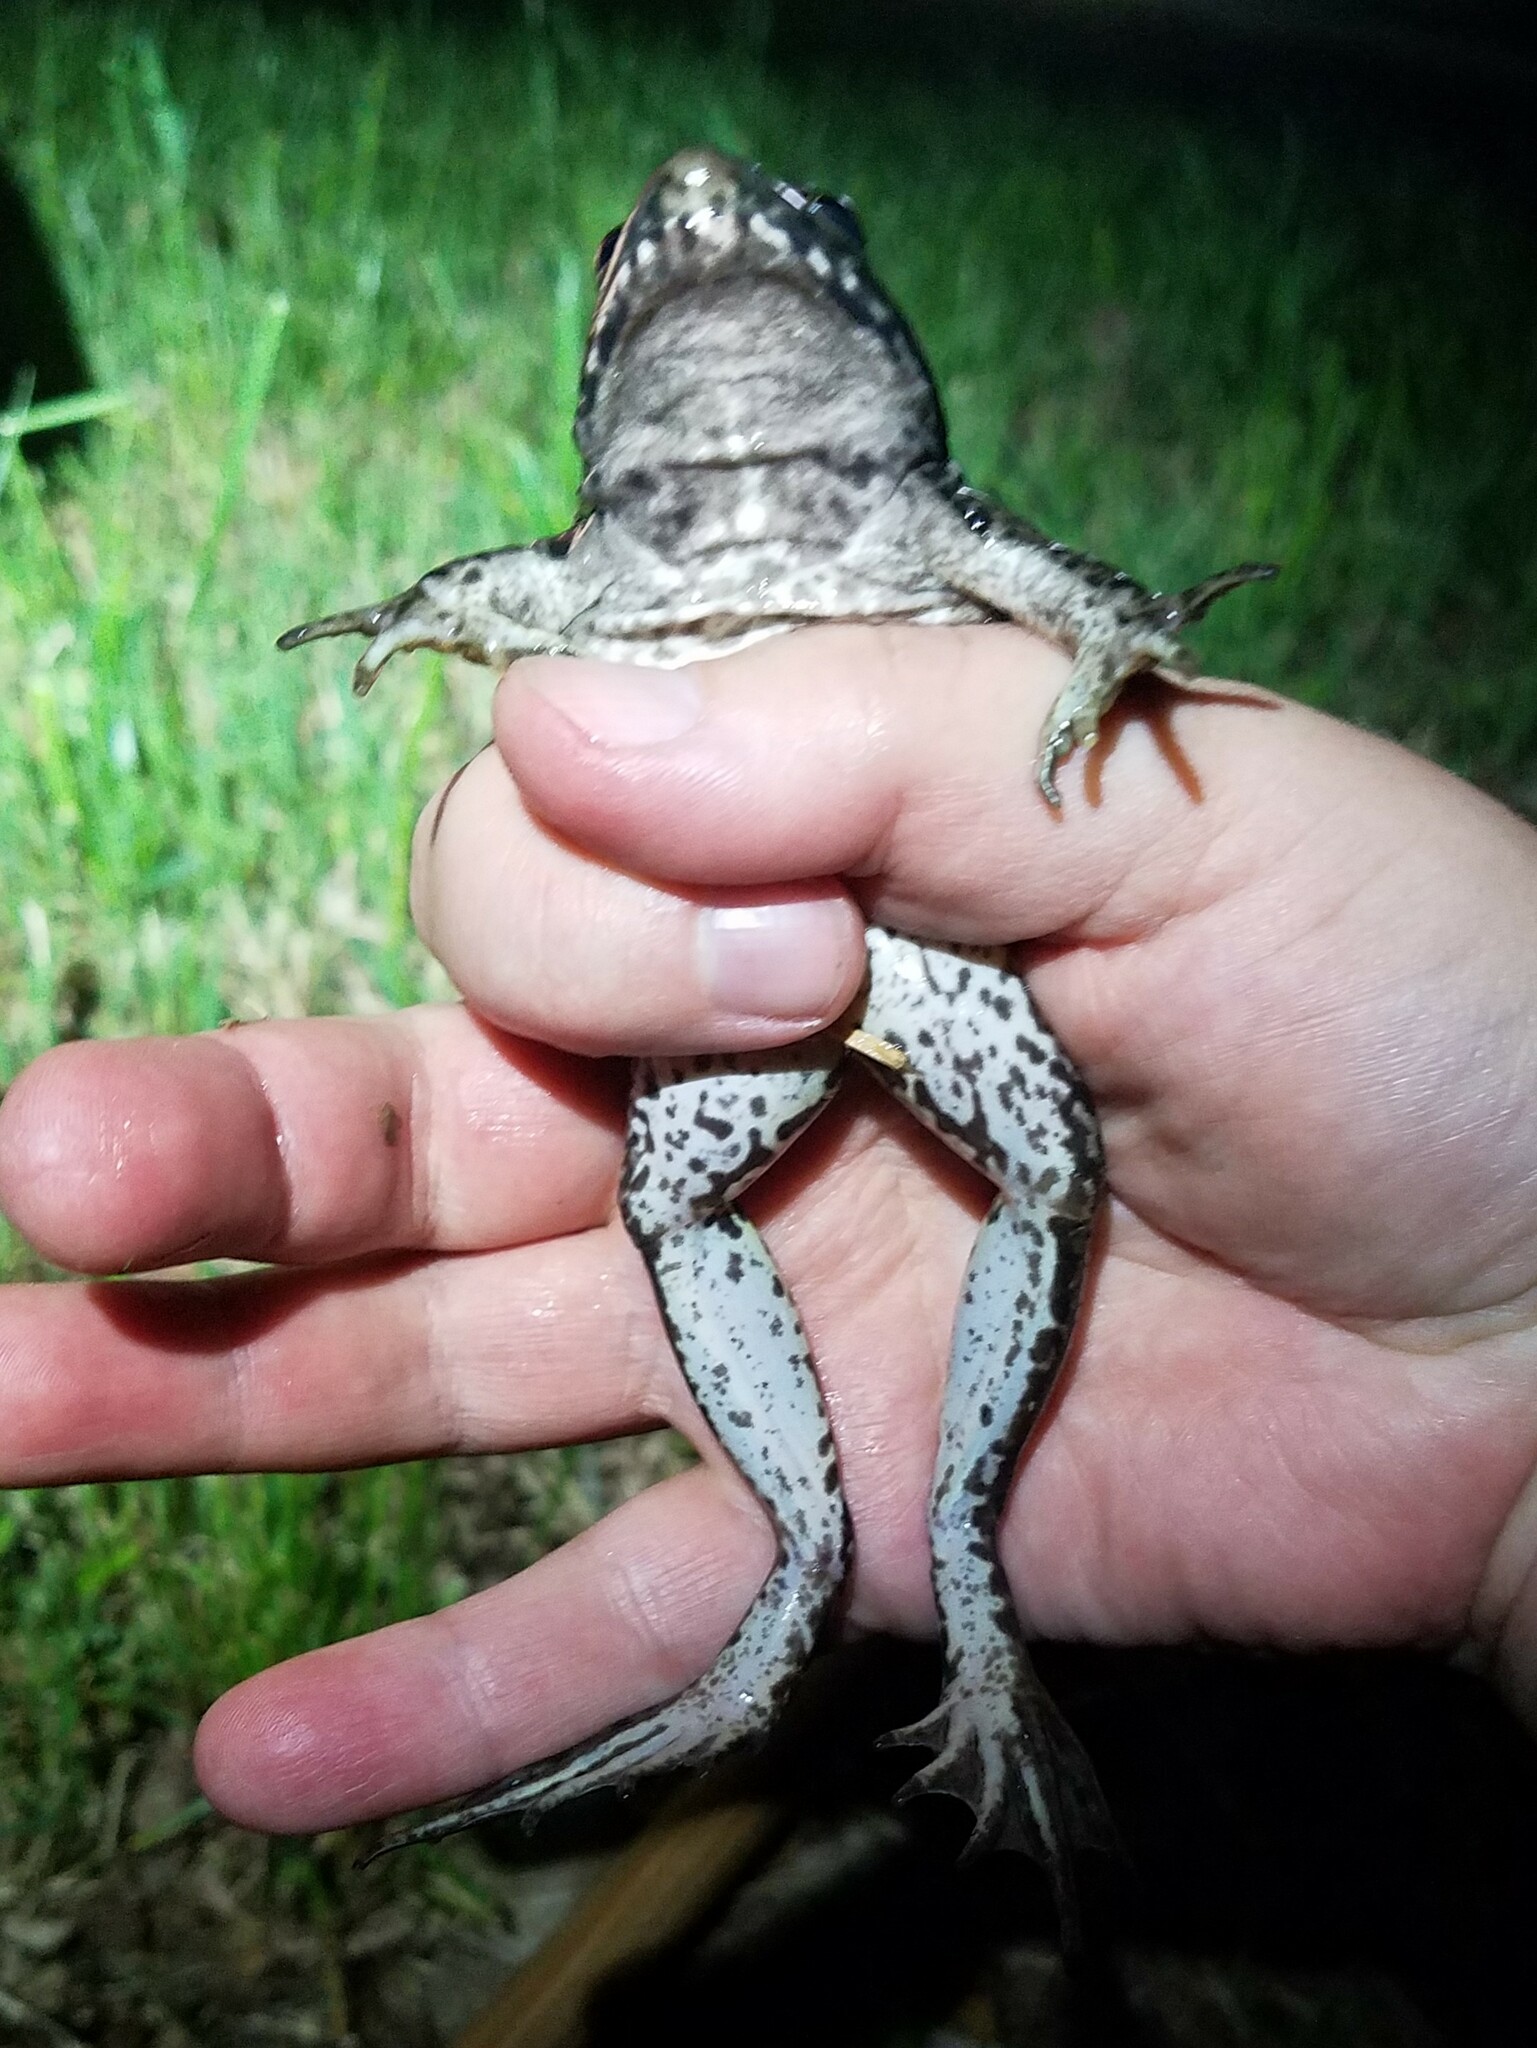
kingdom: Animalia
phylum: Chordata
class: Amphibia
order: Anura
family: Ranidae
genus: Lithobates
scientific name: Lithobates clamitans
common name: Green frog
